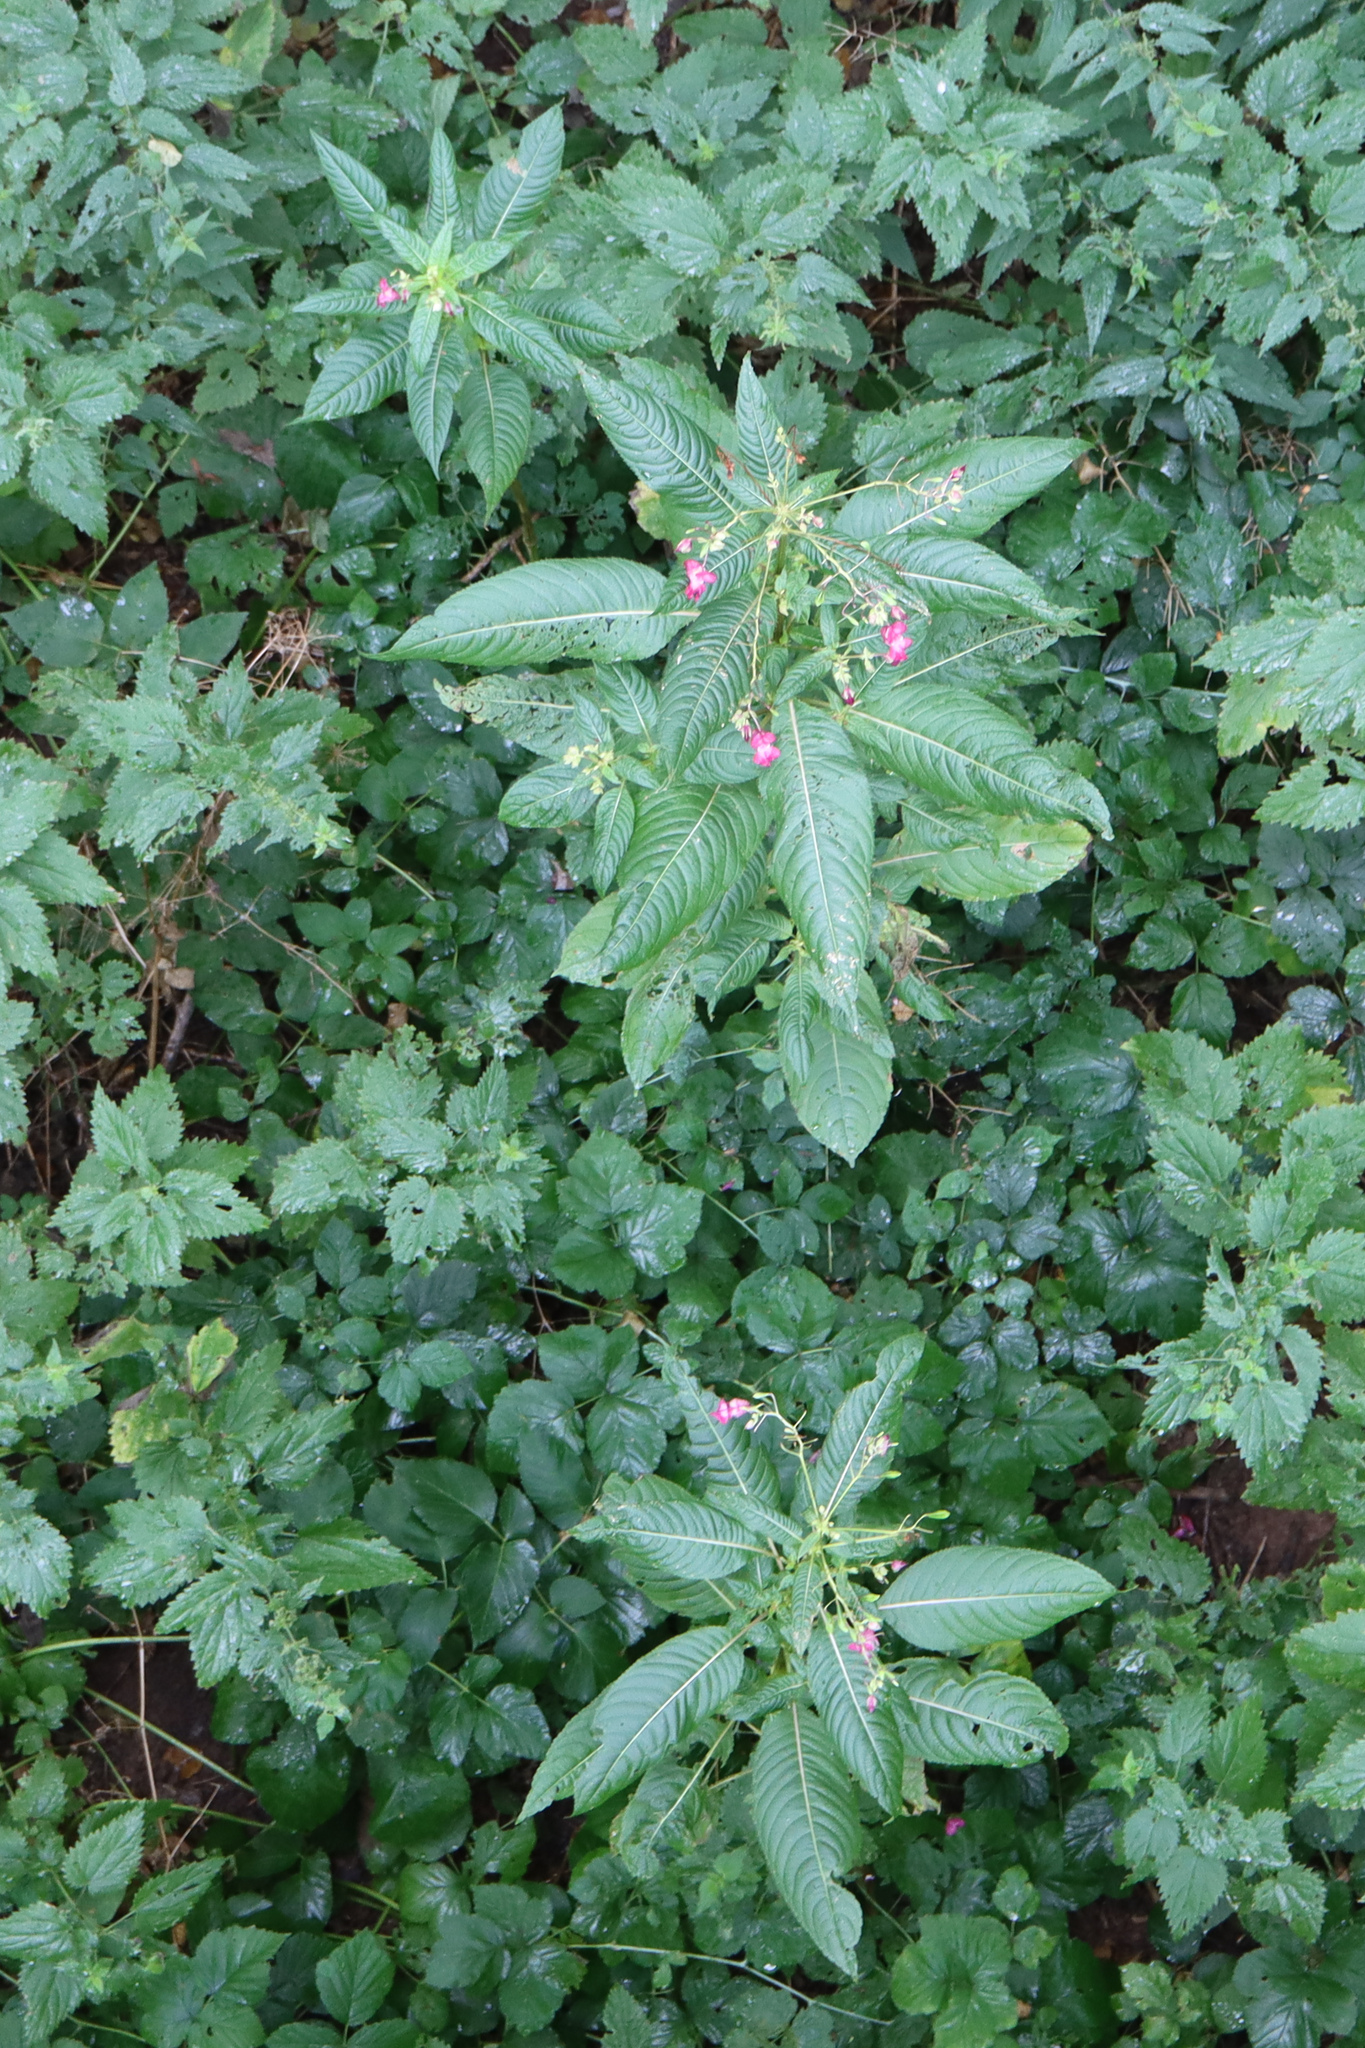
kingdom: Plantae
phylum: Tracheophyta
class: Magnoliopsida
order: Ericales
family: Balsaminaceae
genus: Impatiens
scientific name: Impatiens glandulifera
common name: Himalayan balsam
